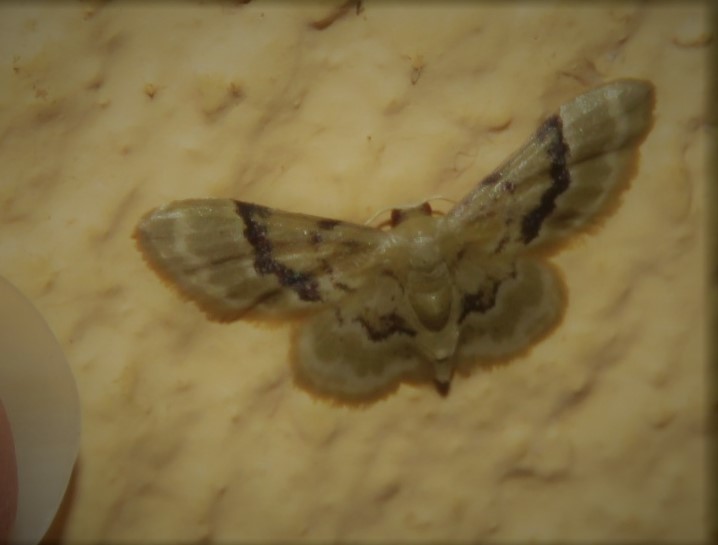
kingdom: Animalia
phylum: Arthropoda
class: Insecta
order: Lepidoptera
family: Geometridae
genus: Idaea
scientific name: Idaea vagula
